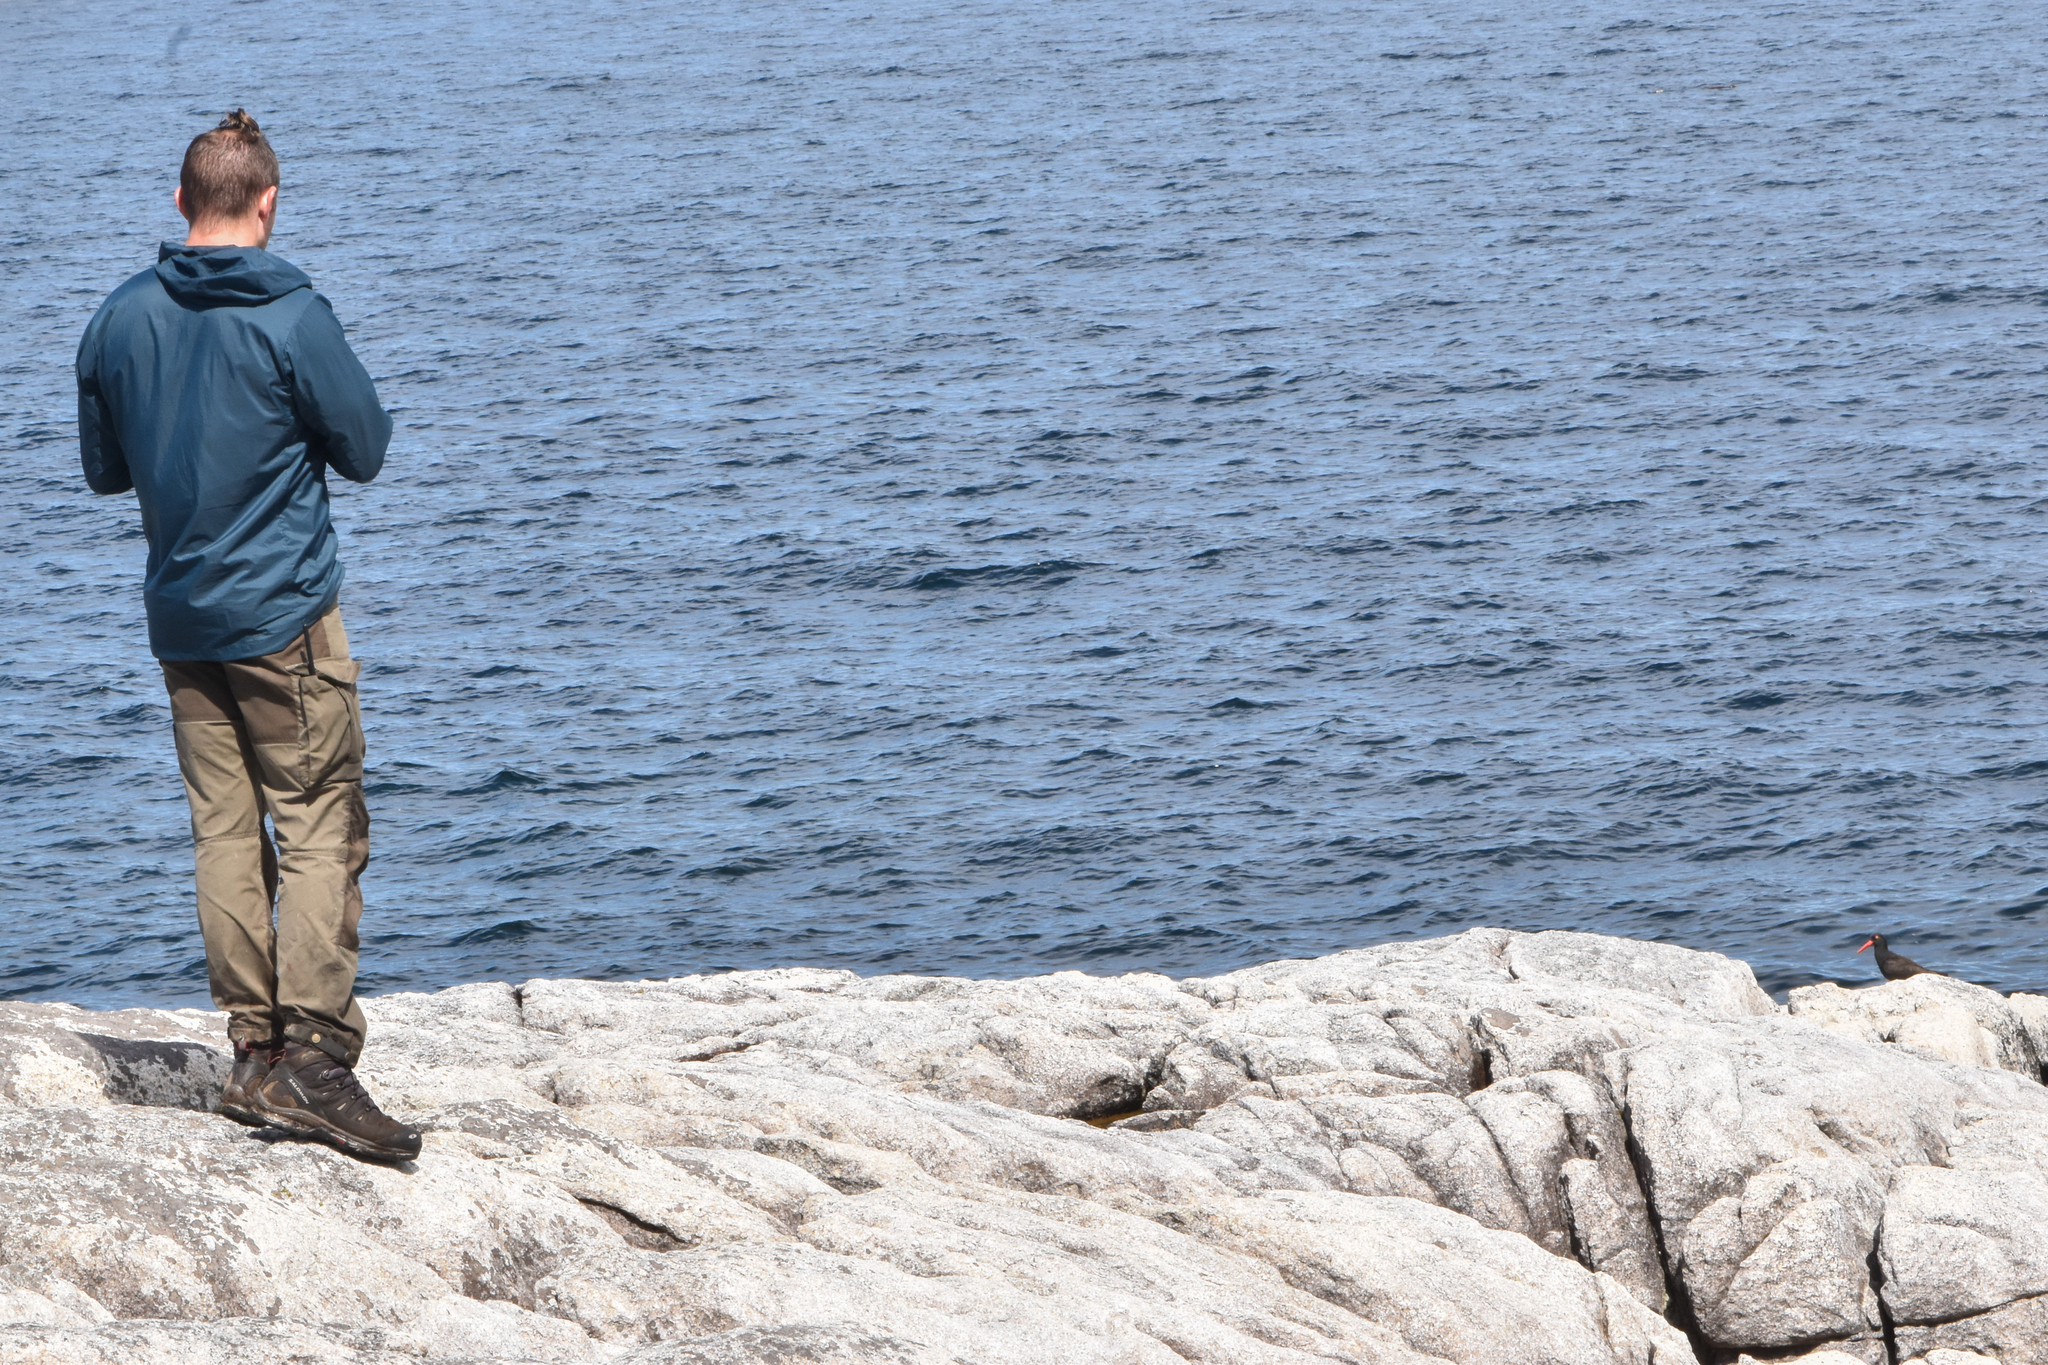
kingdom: Animalia
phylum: Chordata
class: Aves
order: Charadriiformes
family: Haematopodidae
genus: Haematopus
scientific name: Haematopus bachmani
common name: Black oystercatcher
